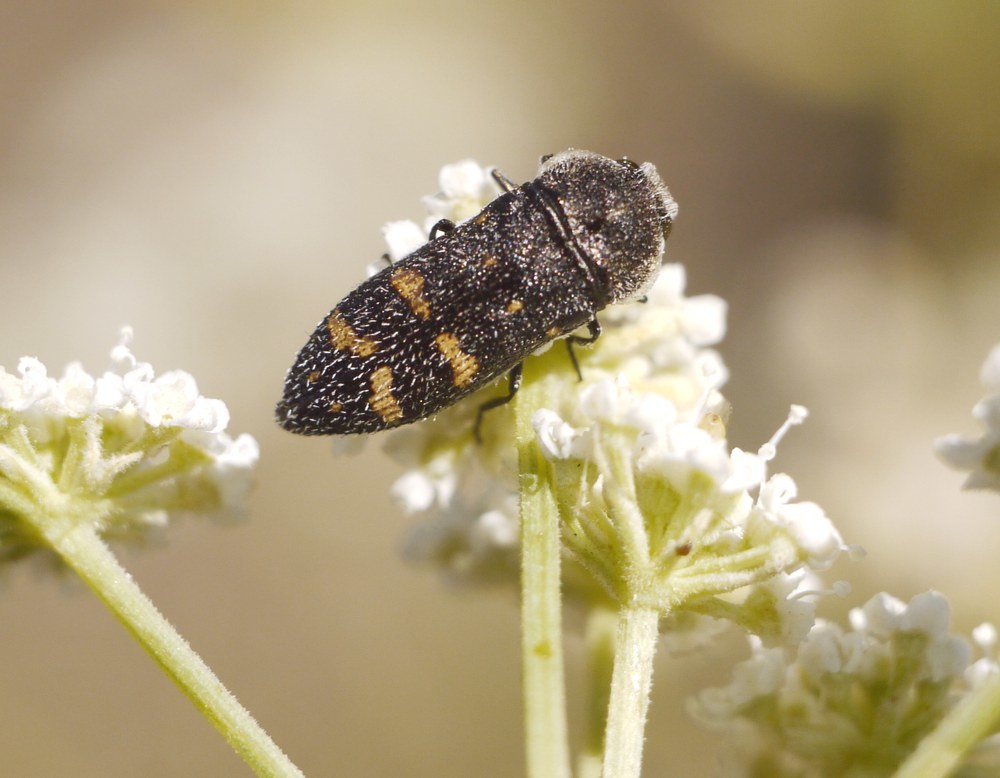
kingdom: Animalia
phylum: Arthropoda
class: Insecta
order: Coleoptera
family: Buprestidae
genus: Acmaeoderella
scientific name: Acmaeoderella flavofasciata
